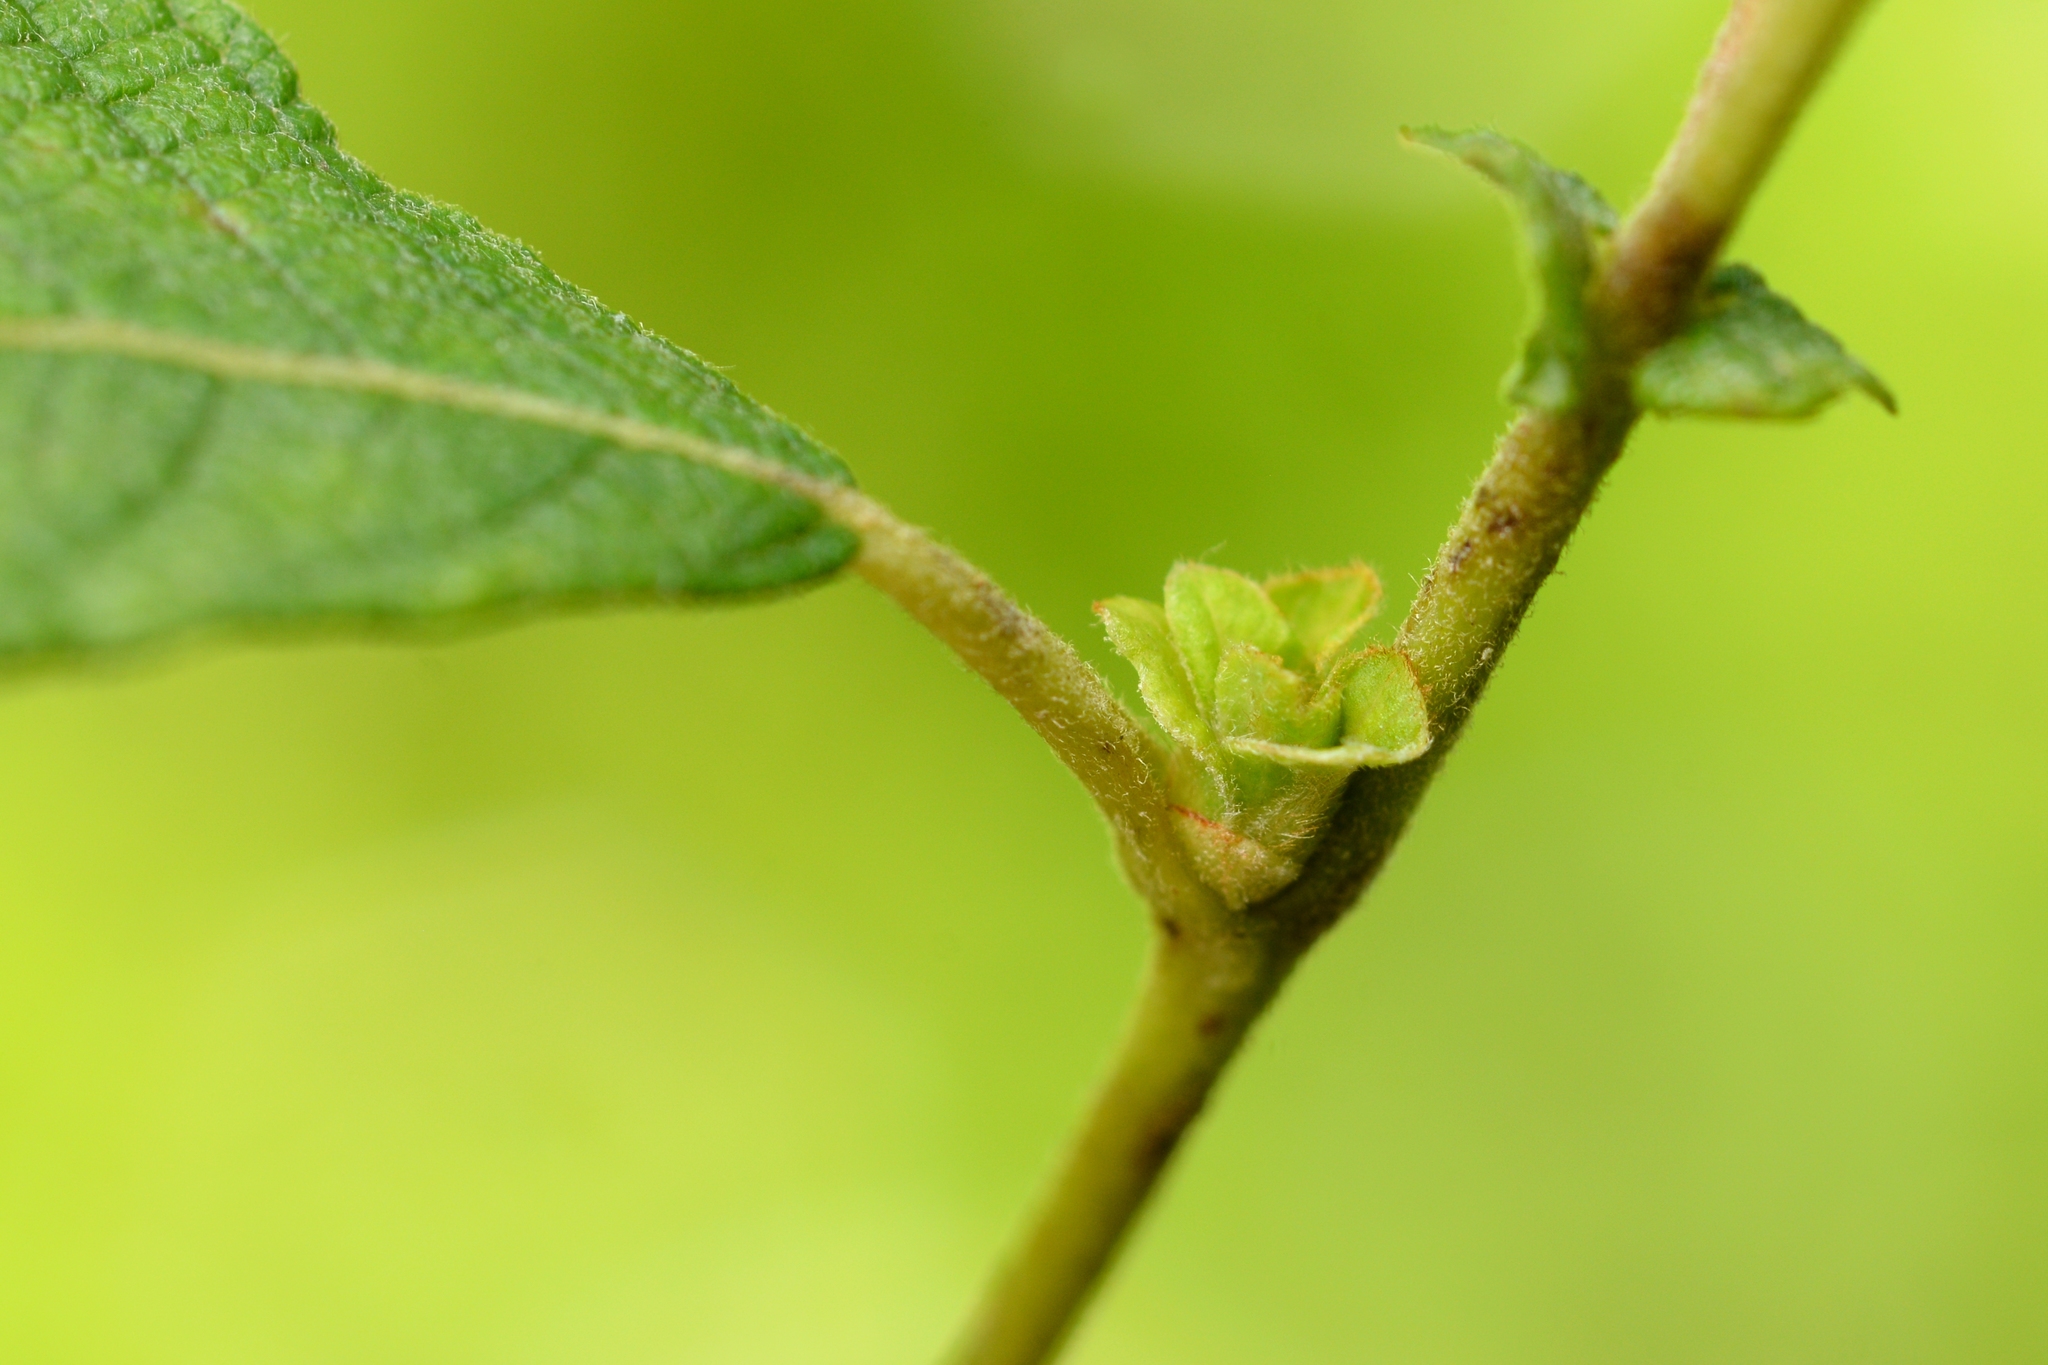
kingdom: Animalia
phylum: Arthropoda
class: Insecta
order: Diptera
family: Cecidomyiidae
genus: Rabdophaga
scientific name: Rabdophaga clavifex
